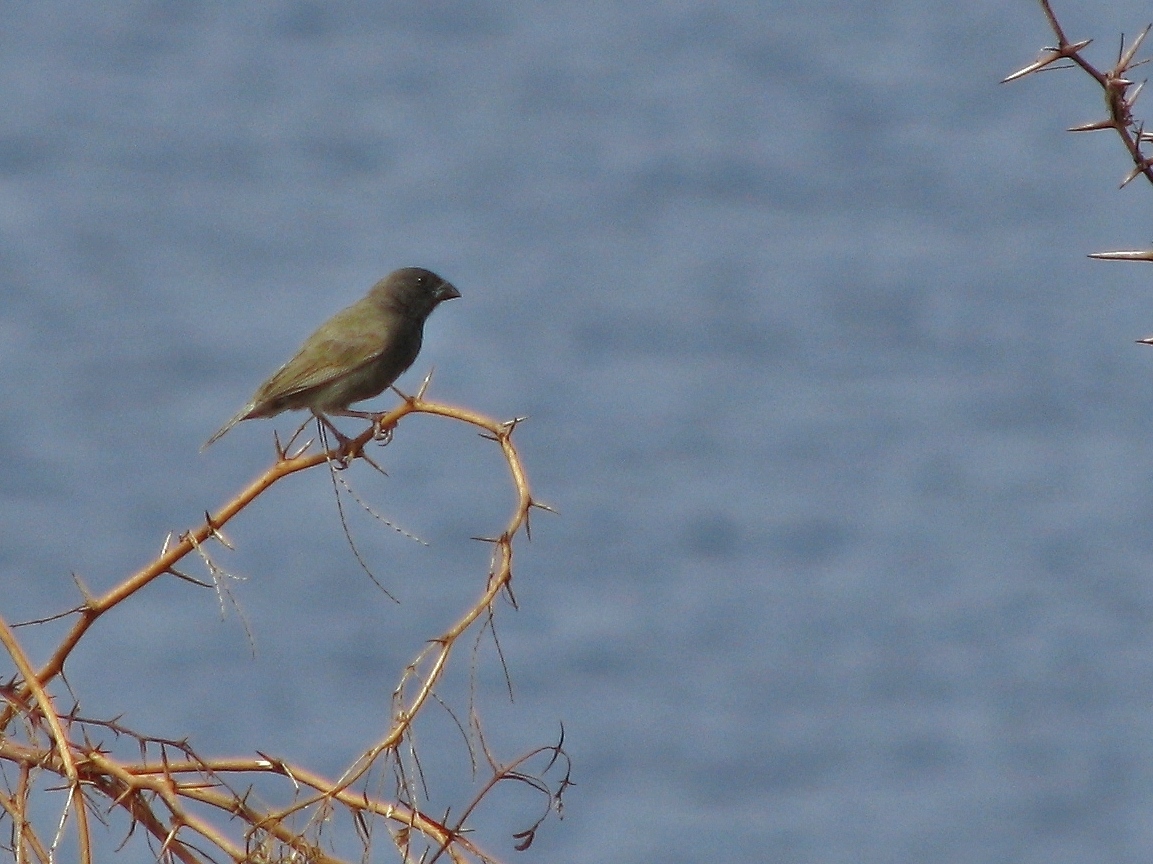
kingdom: Animalia
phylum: Chordata
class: Aves
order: Passeriformes
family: Thraupidae
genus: Melanospiza
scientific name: Melanospiza bicolor
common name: Black-faced grassquit
